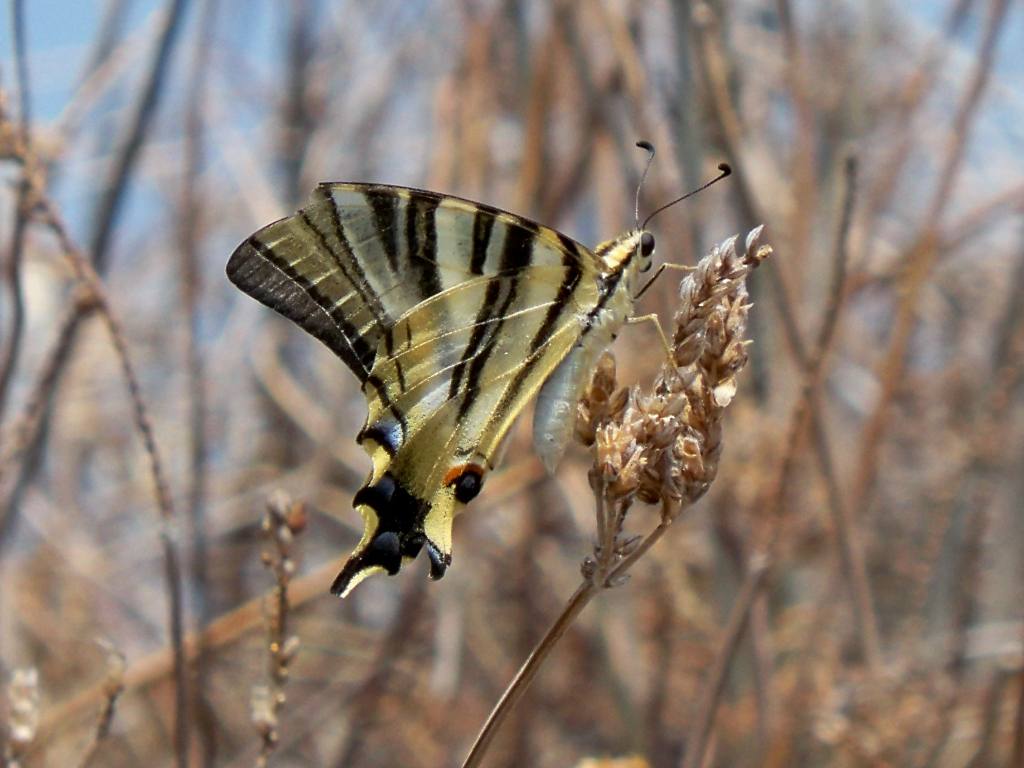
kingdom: Animalia
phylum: Arthropoda
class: Insecta
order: Lepidoptera
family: Papilionidae
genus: Iphiclides
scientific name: Iphiclides feisthamelii
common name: Iberian scarce swallowtail
